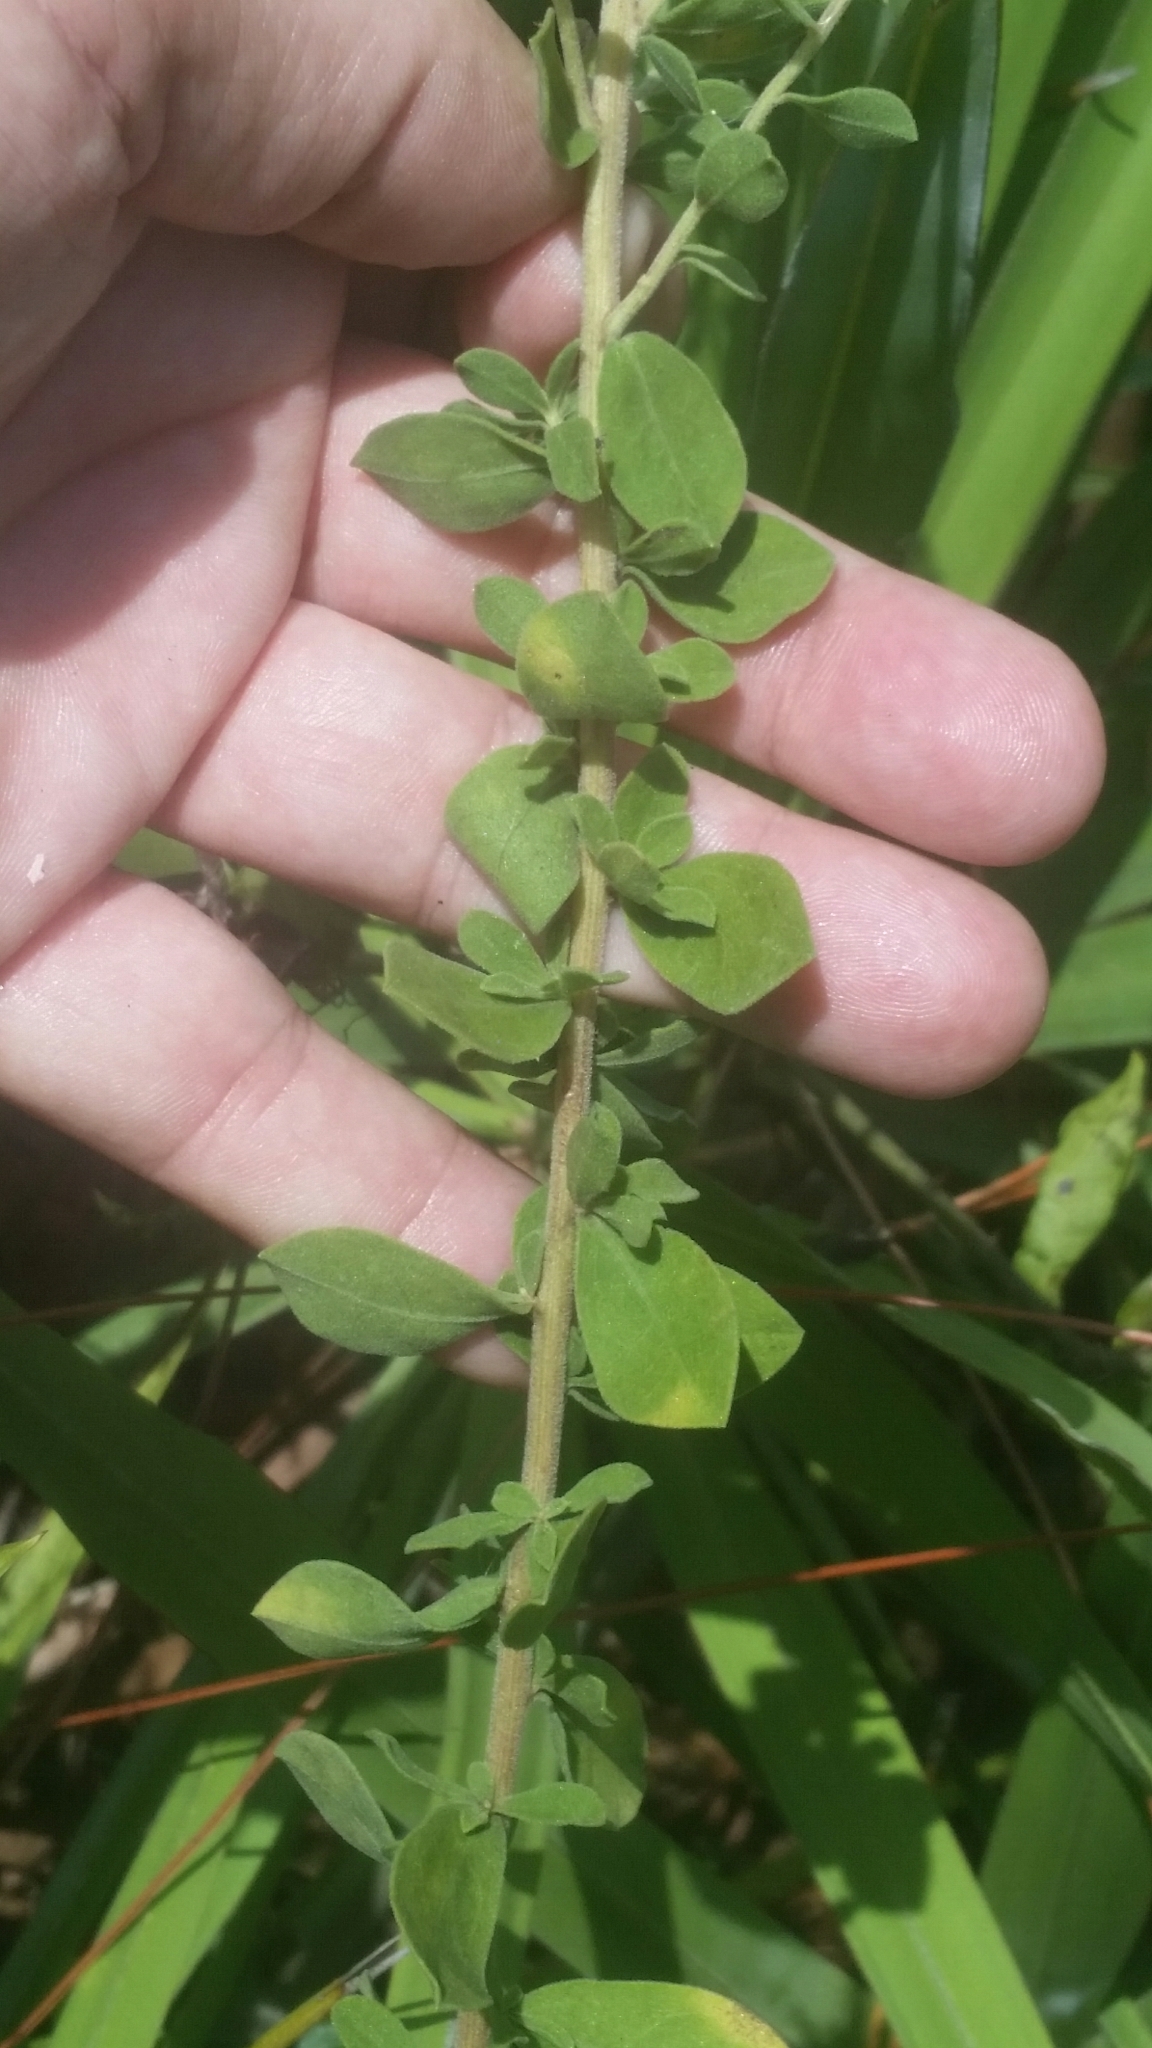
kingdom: Plantae
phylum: Tracheophyta
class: Magnoliopsida
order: Asterales
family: Asteraceae
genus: Sericocarpus
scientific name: Sericocarpus tortifolius
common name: Dixie aster
